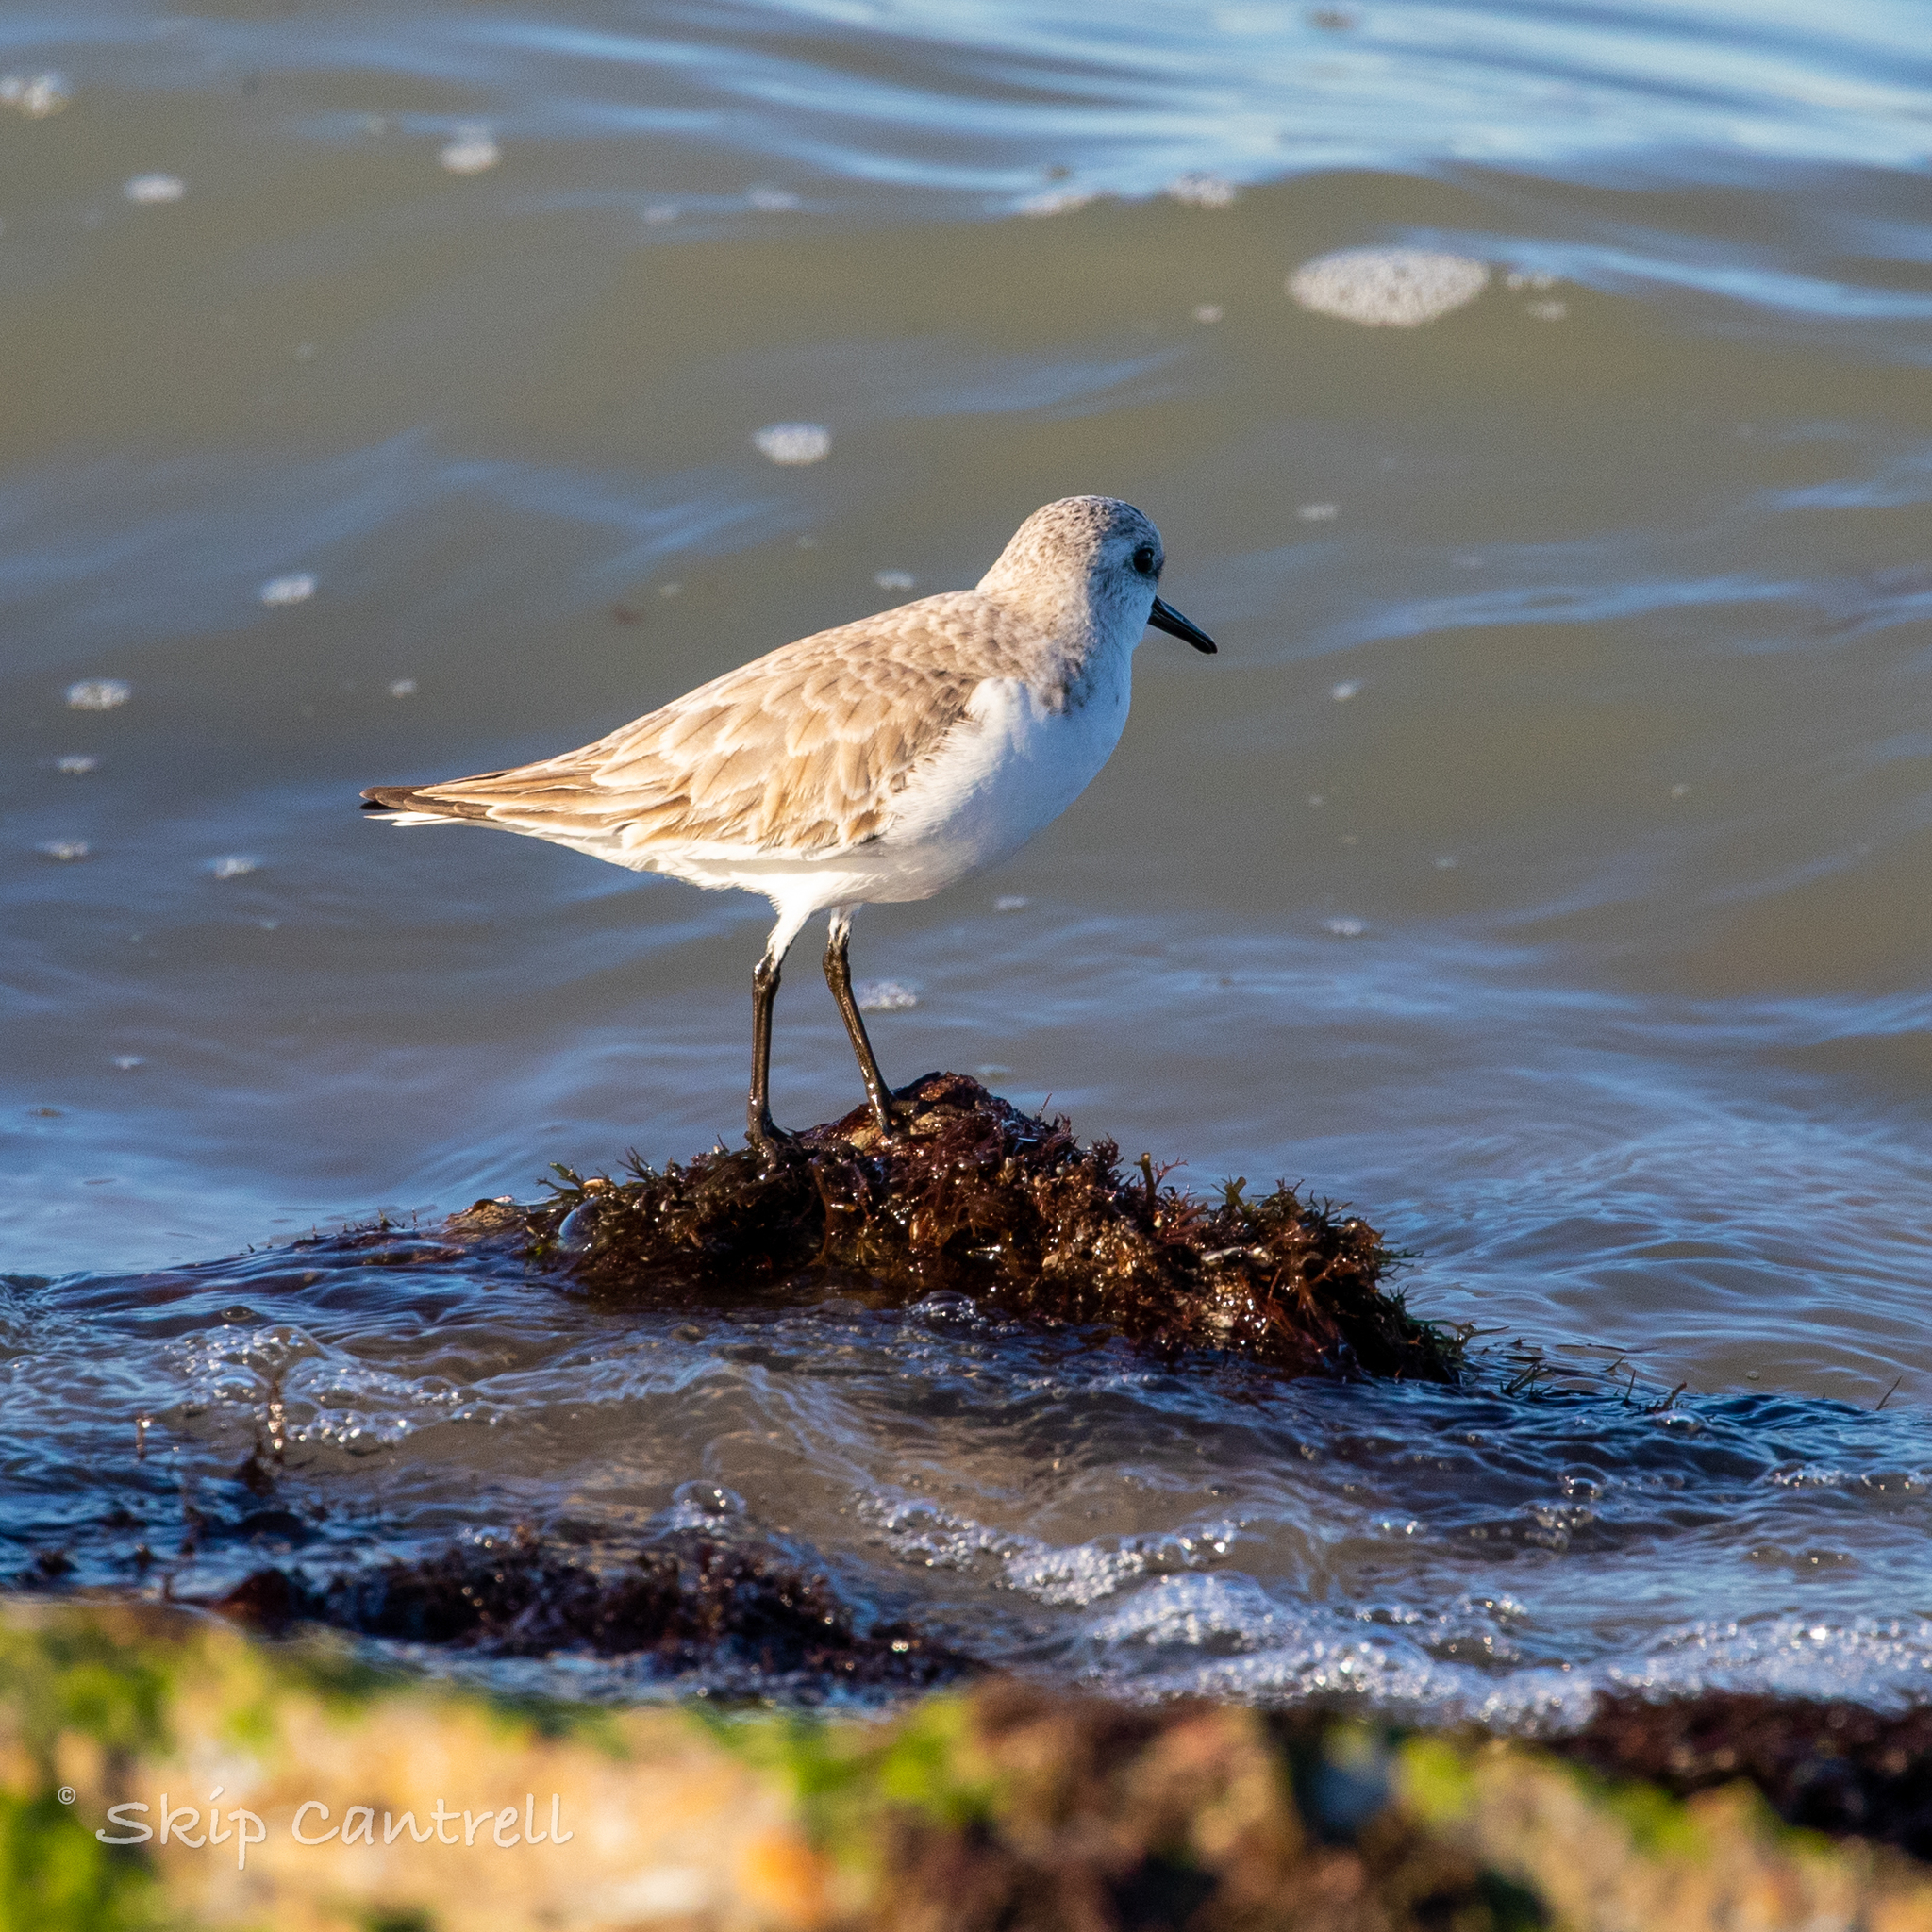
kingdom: Animalia
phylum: Chordata
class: Aves
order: Charadriiformes
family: Scolopacidae
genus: Calidris
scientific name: Calidris alba
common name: Sanderling
